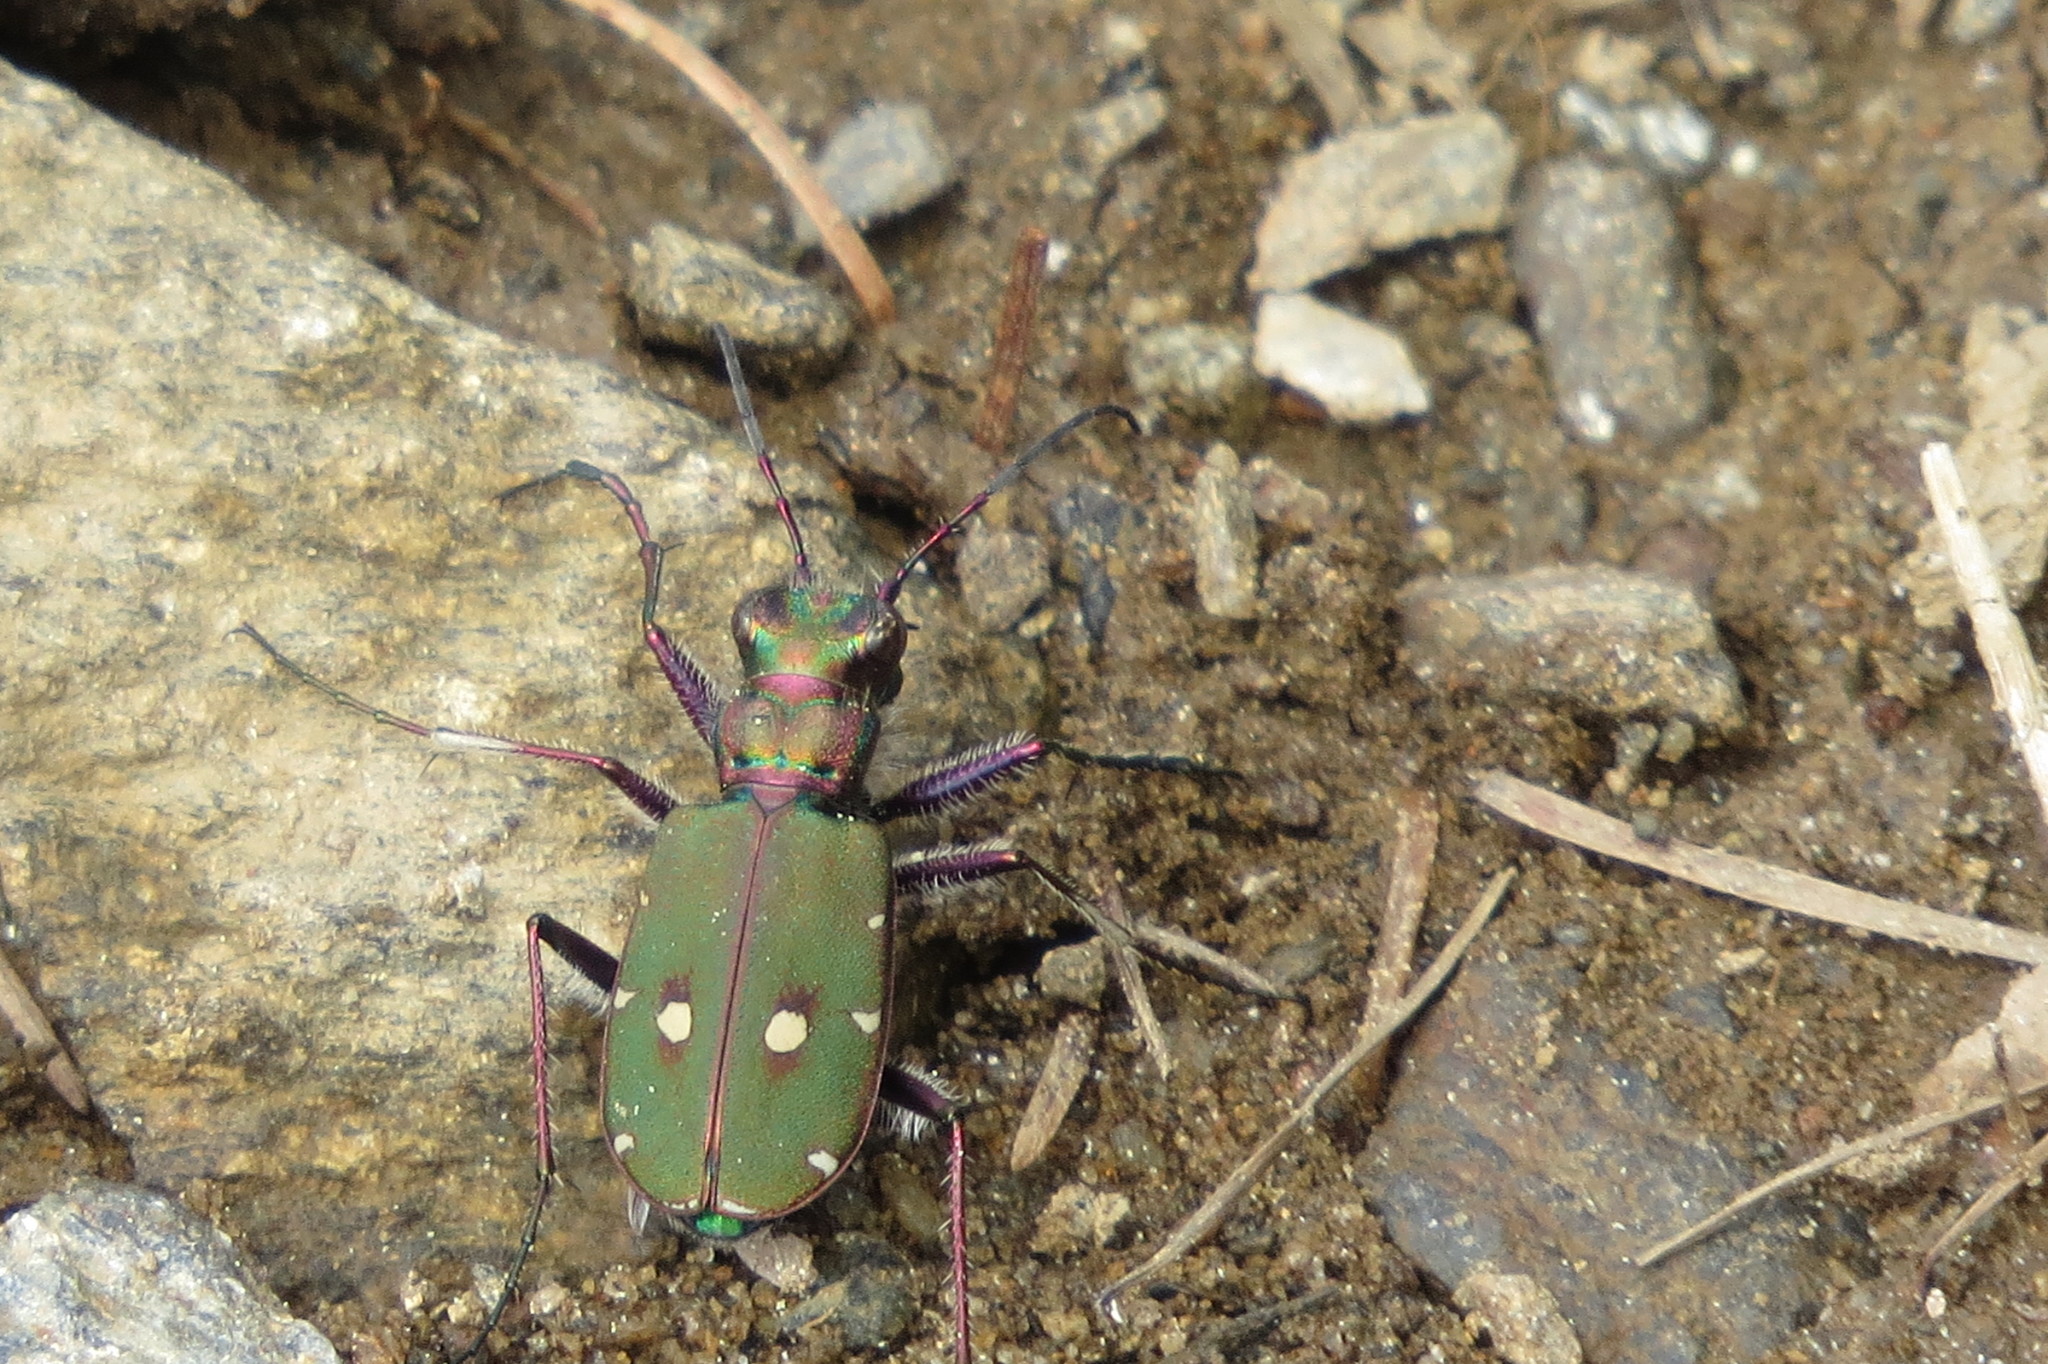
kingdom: Animalia
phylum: Arthropoda
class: Insecta
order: Coleoptera
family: Carabidae
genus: Cicindela
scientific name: Cicindela campestris
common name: Common tiger beetle
